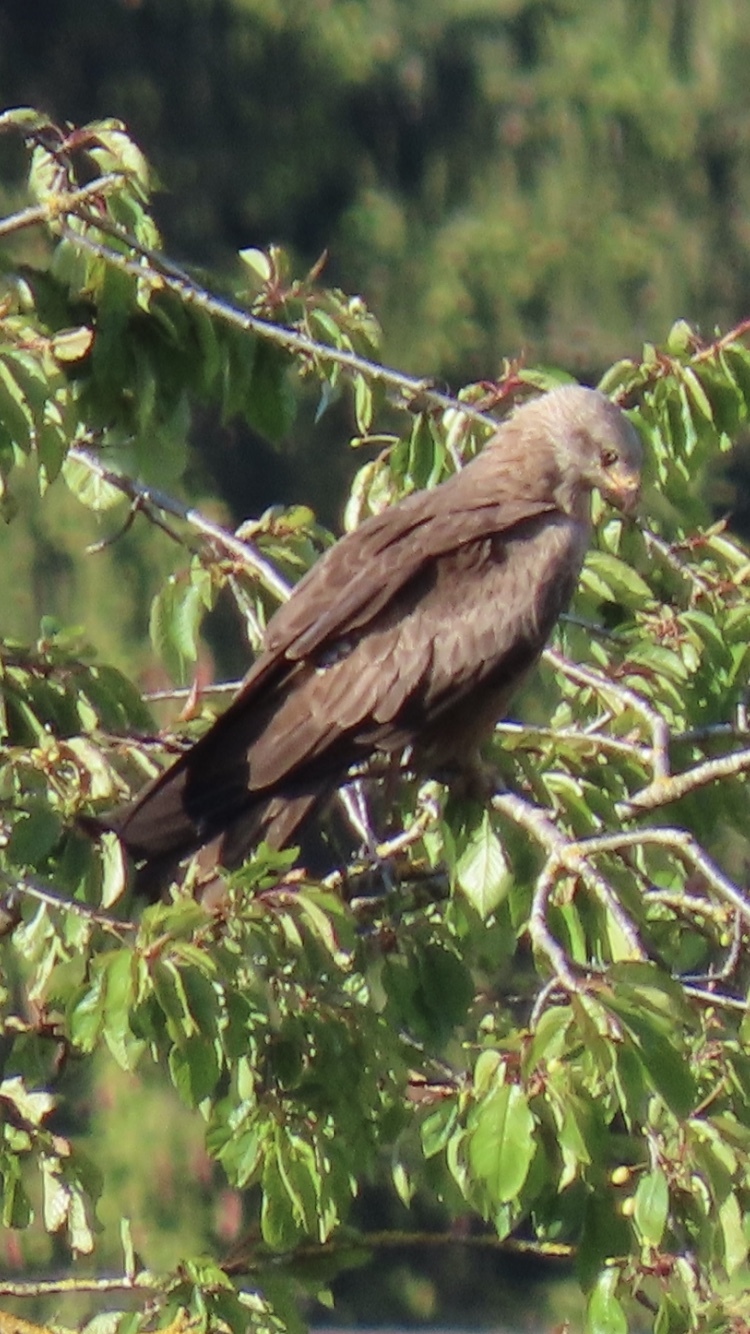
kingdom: Animalia
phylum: Chordata
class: Aves
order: Accipitriformes
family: Accipitridae
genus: Milvus
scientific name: Milvus migrans
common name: Black kite
